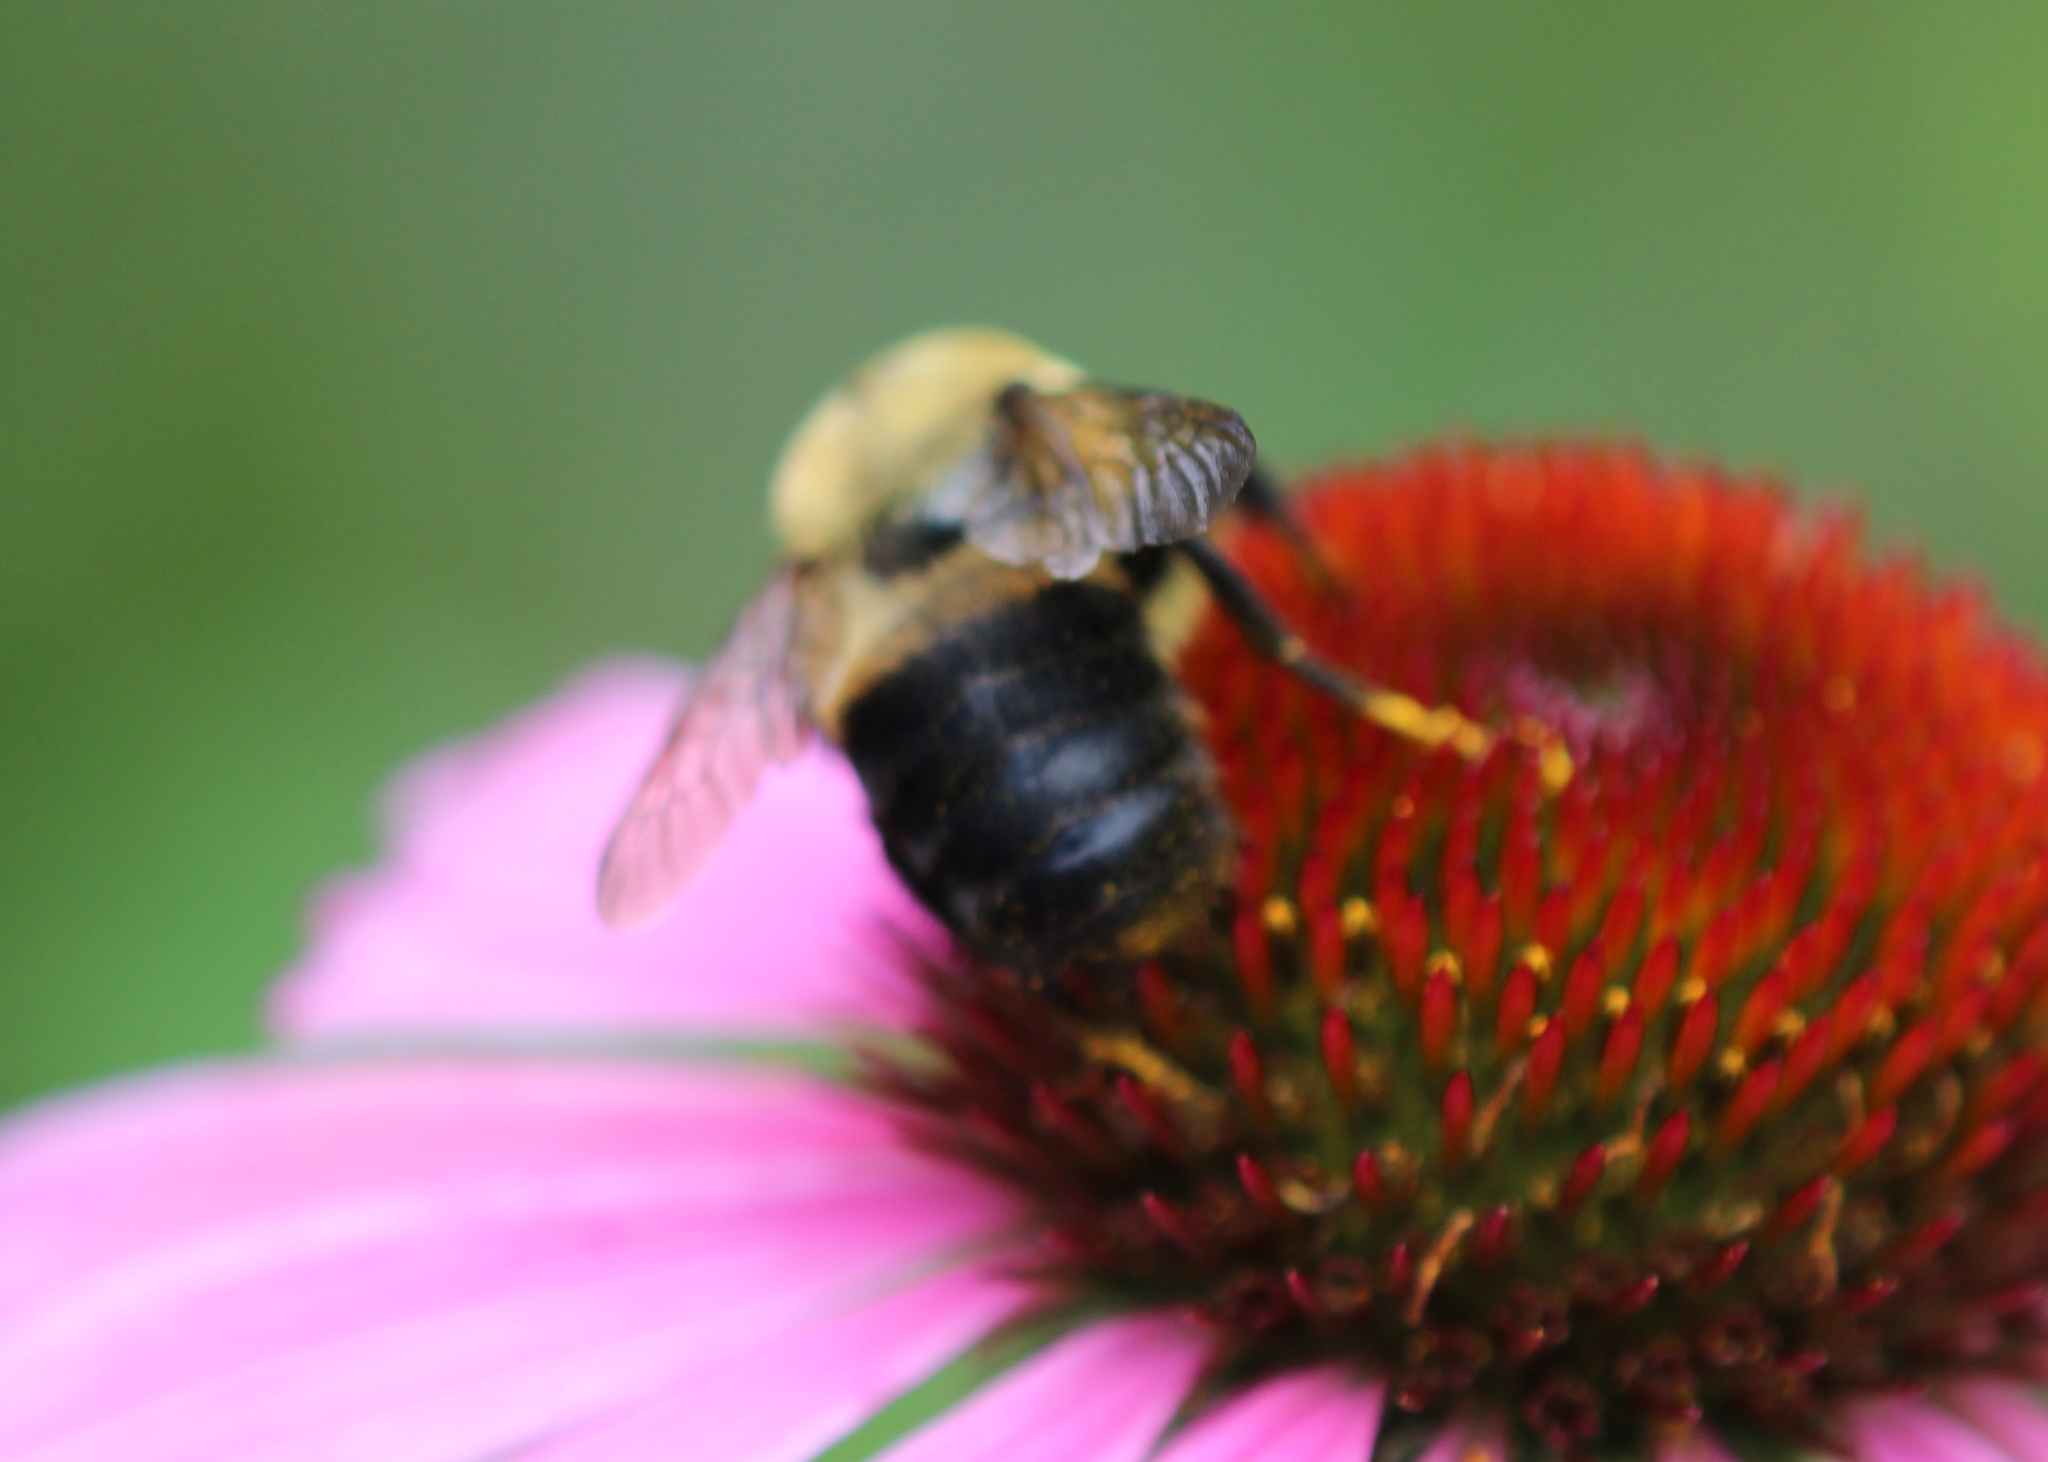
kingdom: Animalia
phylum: Arthropoda
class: Insecta
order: Hymenoptera
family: Apidae
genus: Bombus
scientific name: Bombus griseocollis
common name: Brown-belted bumble bee
